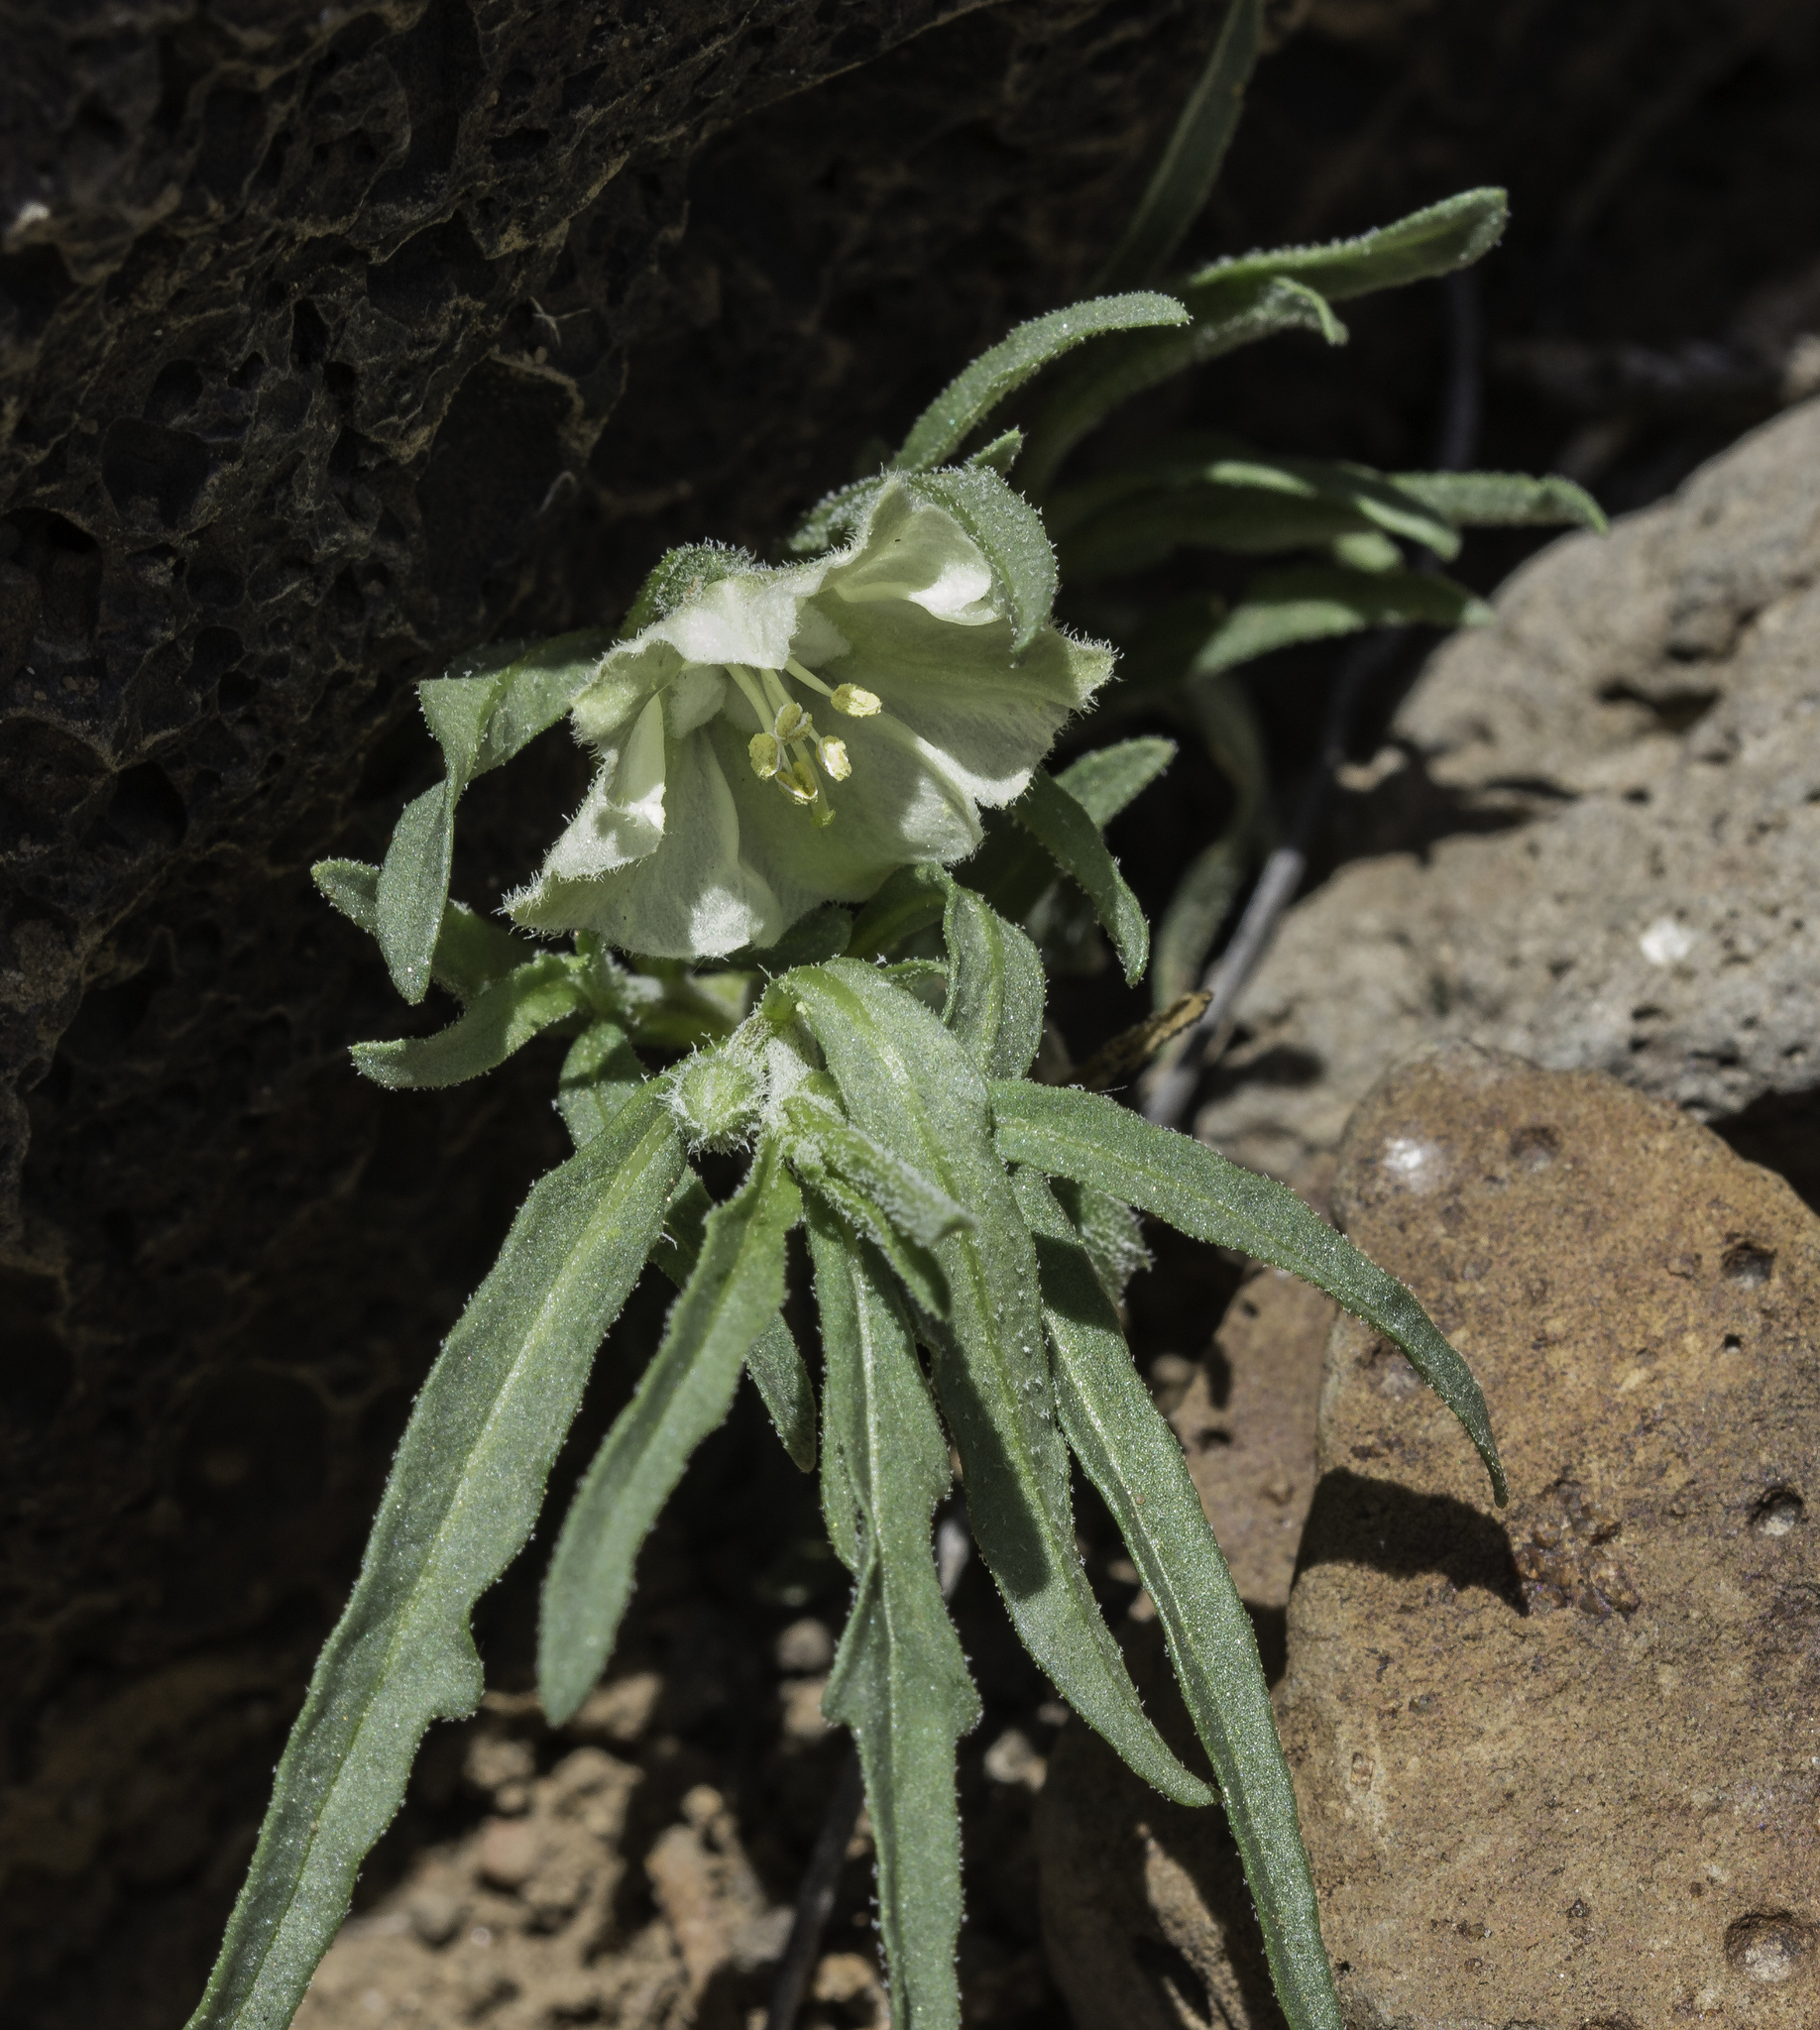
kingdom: Plantae
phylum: Tracheophyta
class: Magnoliopsida
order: Solanales
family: Solanaceae
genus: Chamaesaracha
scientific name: Chamaesaracha coronopus
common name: Smooth chamaesaracha
